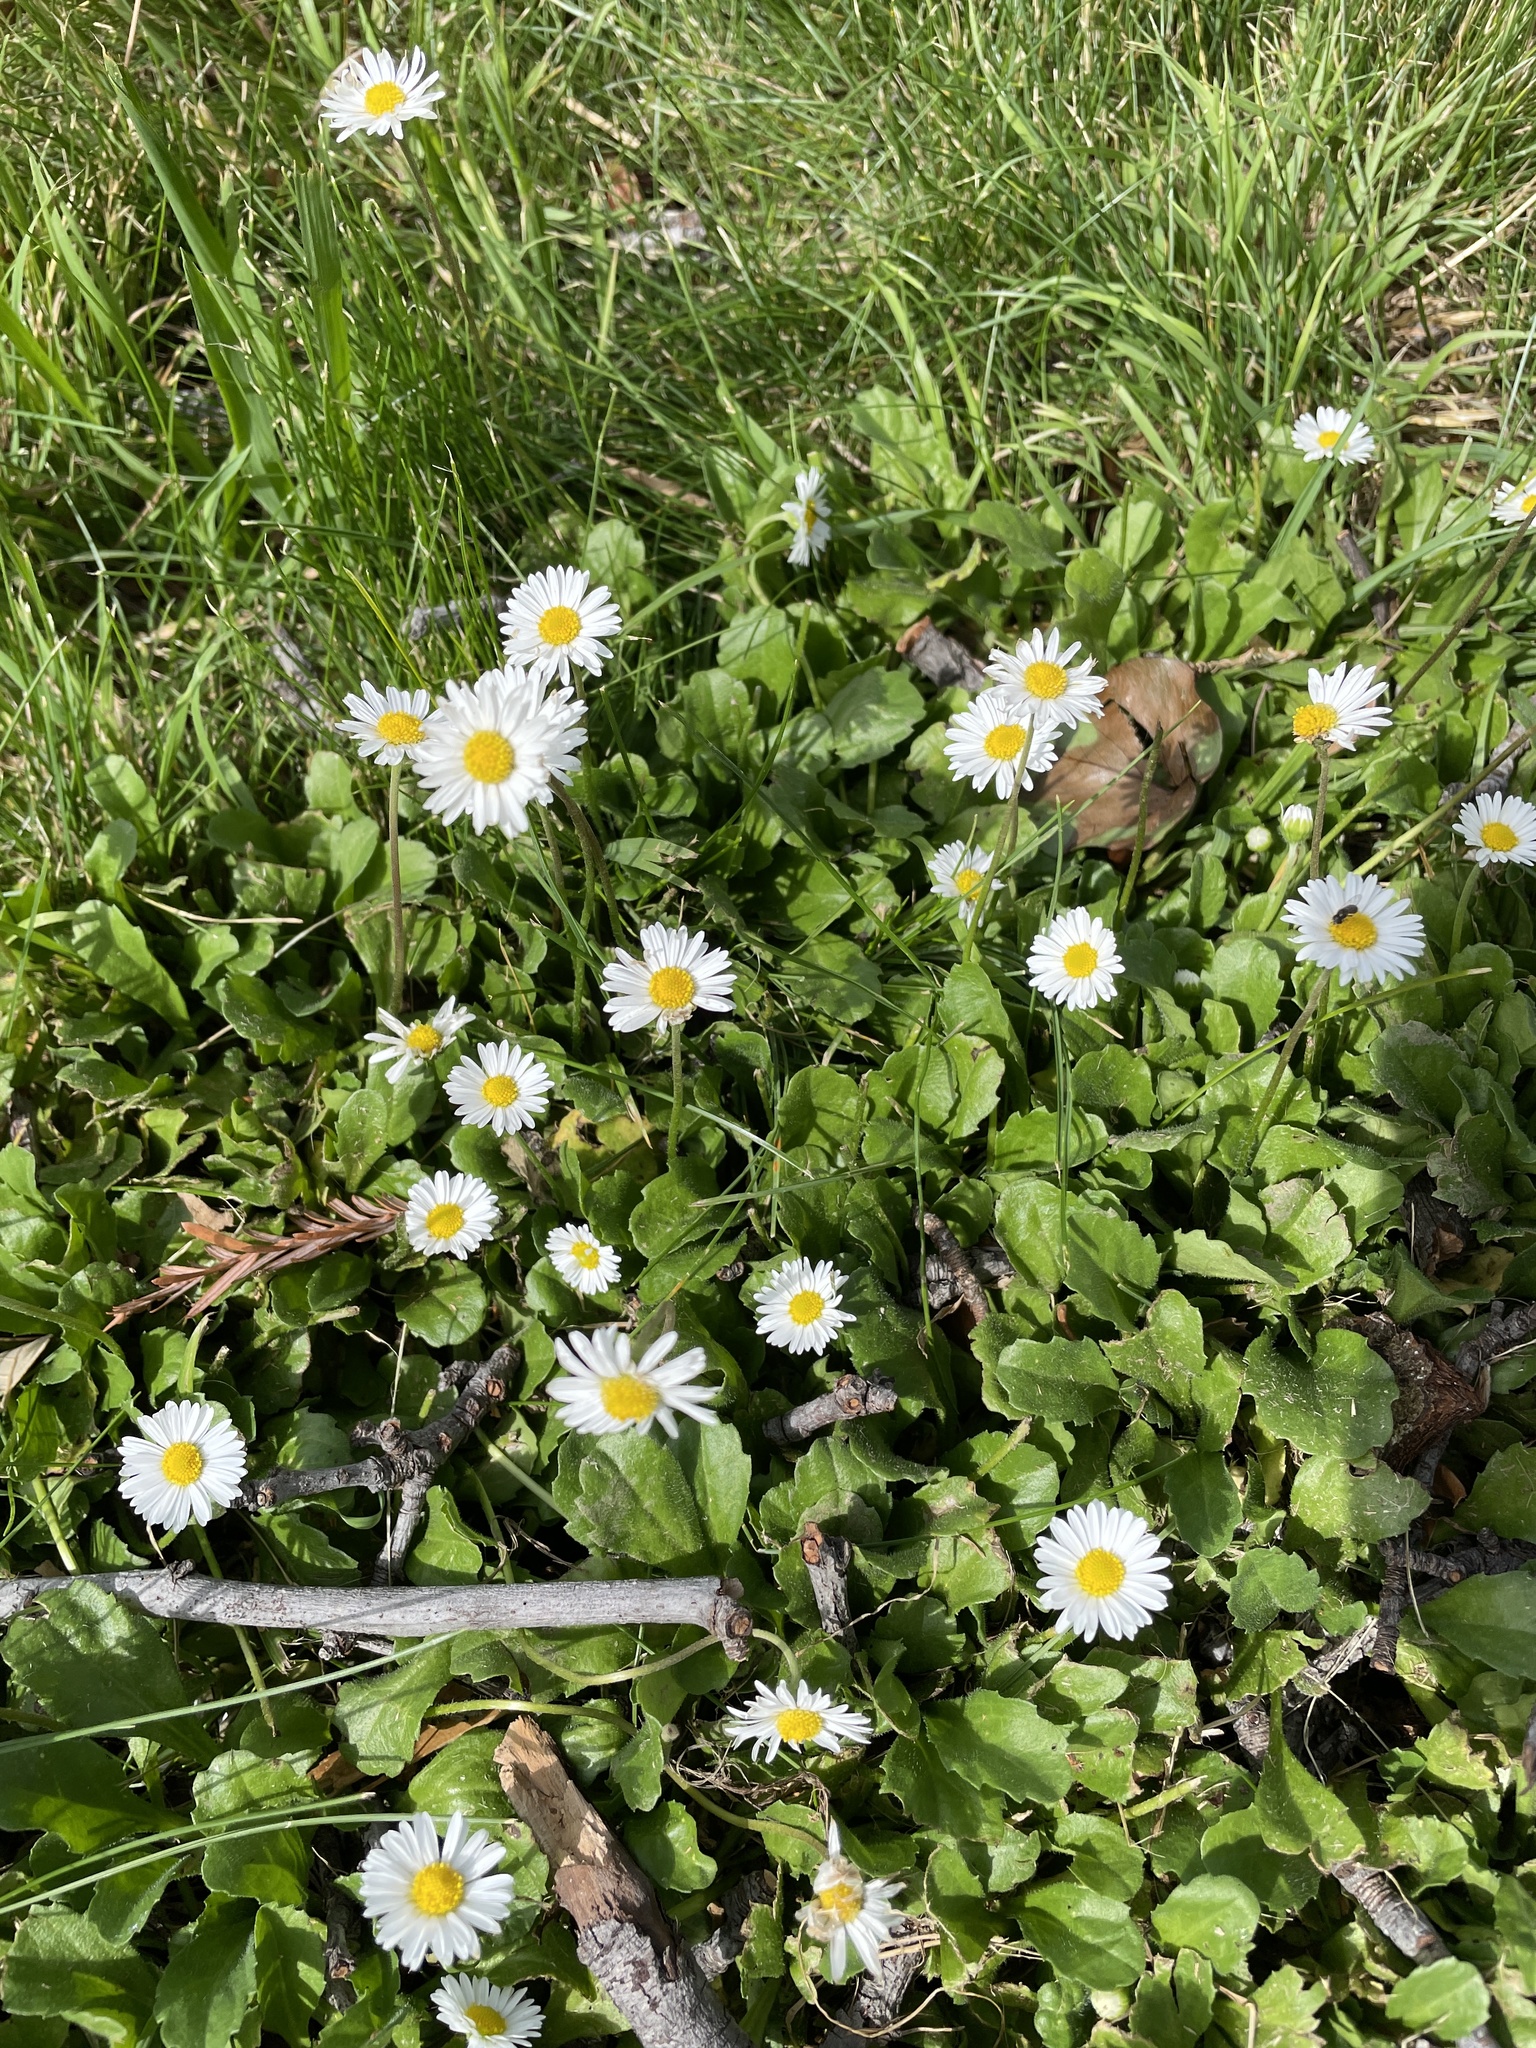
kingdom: Plantae
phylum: Tracheophyta
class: Magnoliopsida
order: Asterales
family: Asteraceae
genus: Bellis
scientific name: Bellis perennis
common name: Lawndaisy
